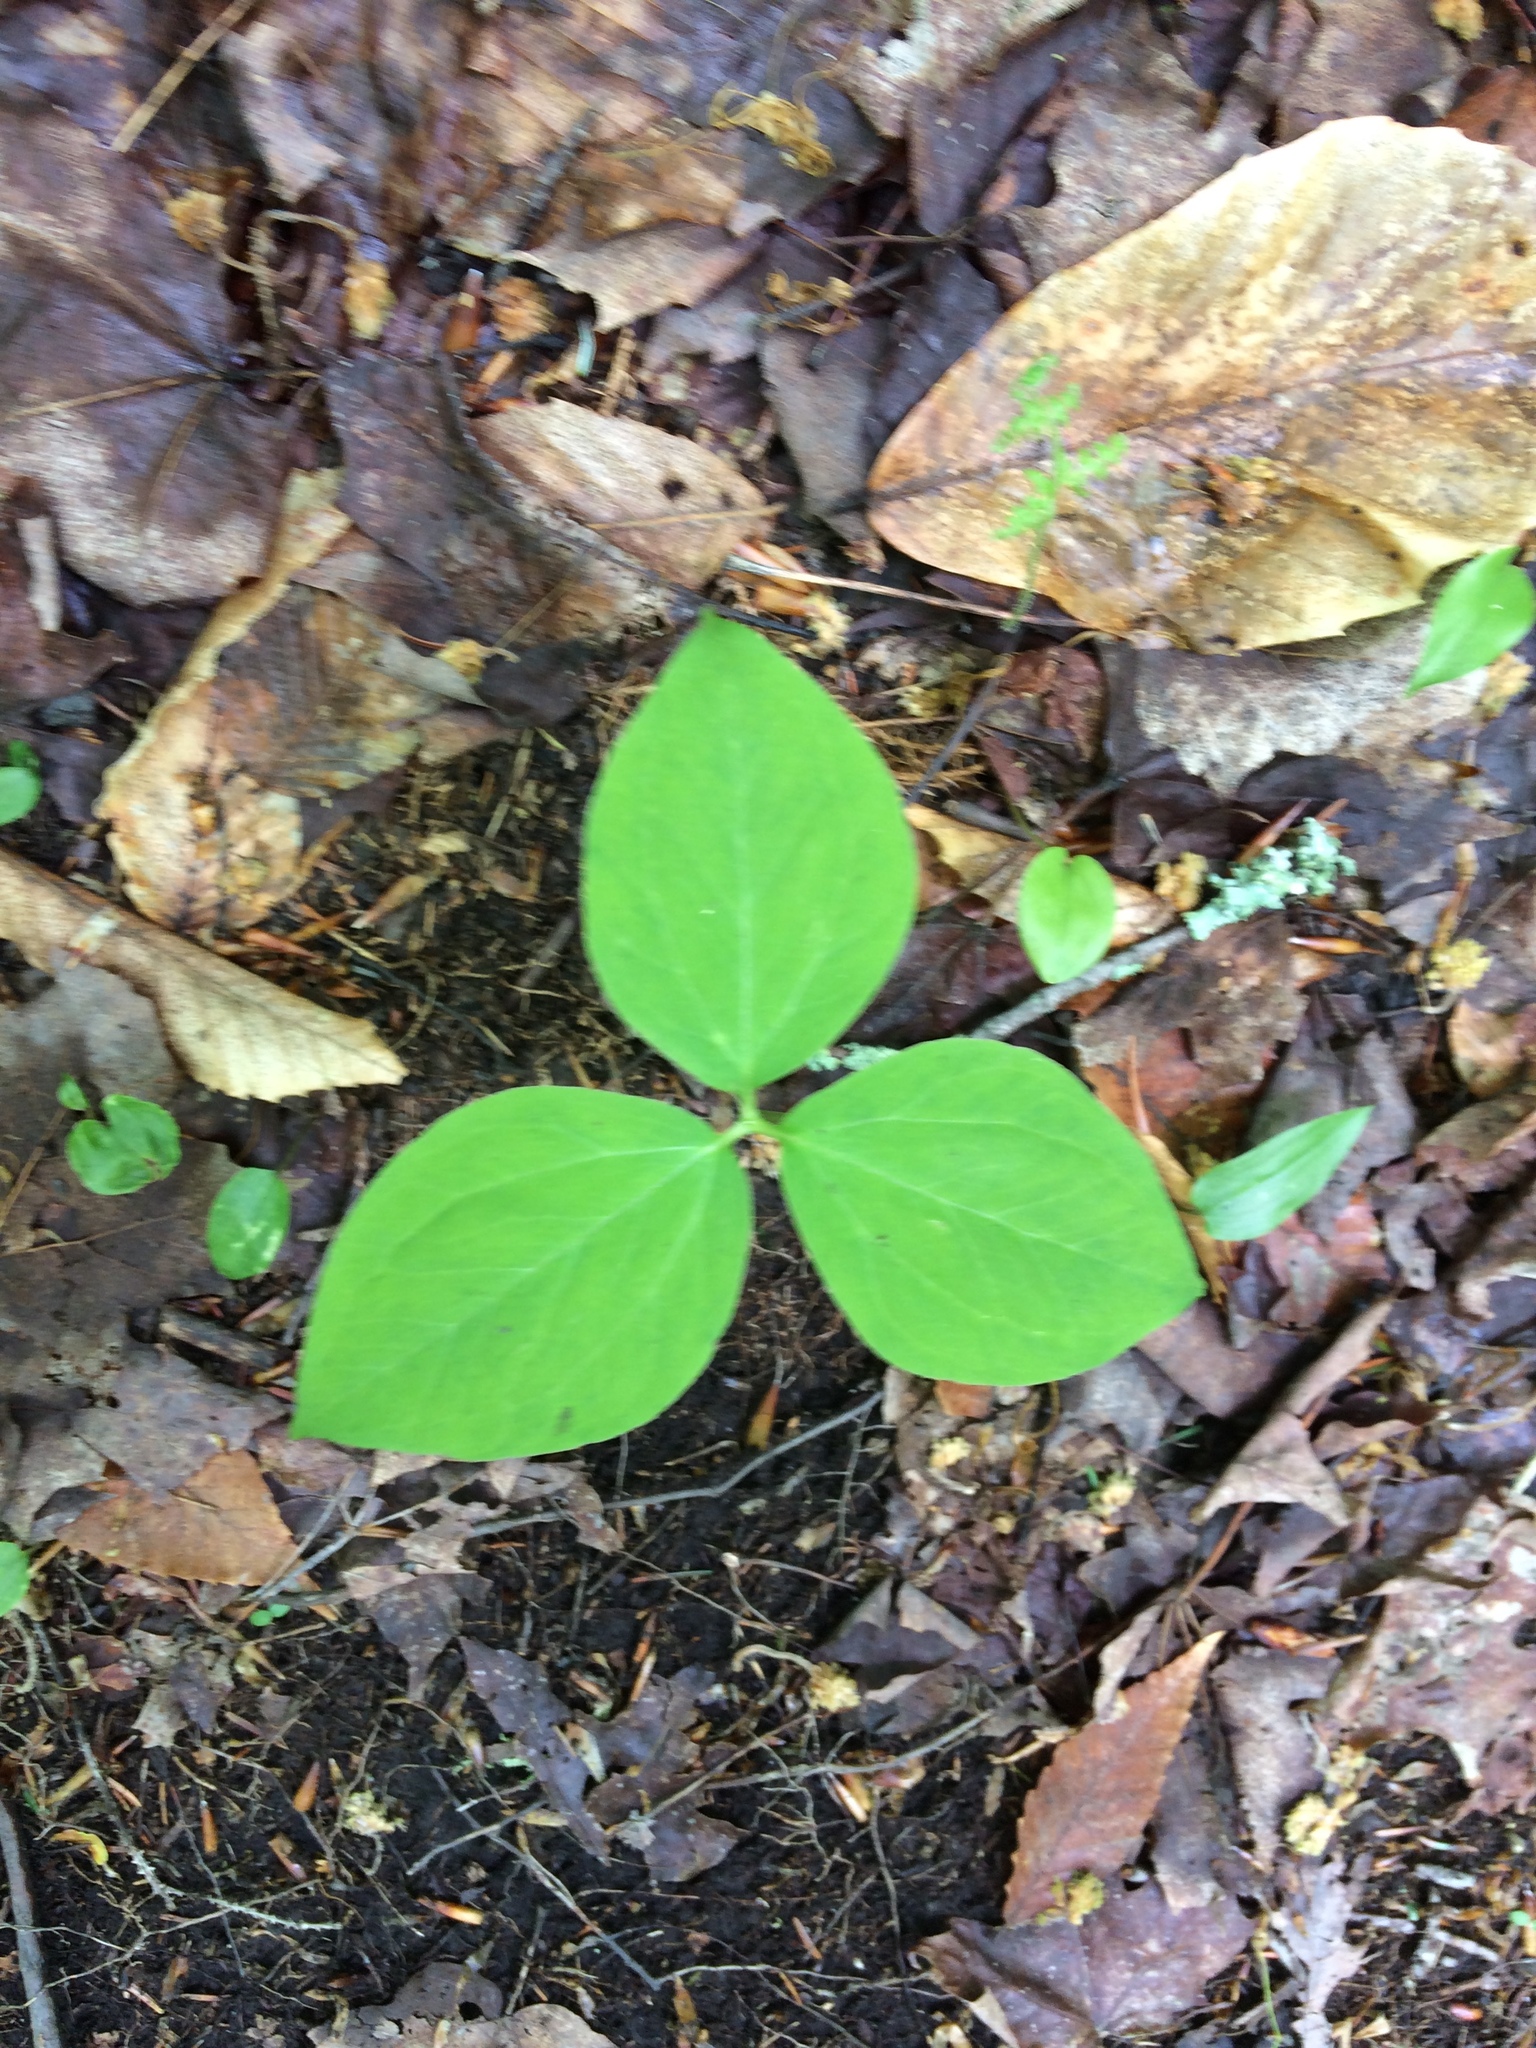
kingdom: Plantae
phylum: Tracheophyta
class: Liliopsida
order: Liliales
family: Melanthiaceae
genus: Trillium
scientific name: Trillium undulatum
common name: Paint trillium
